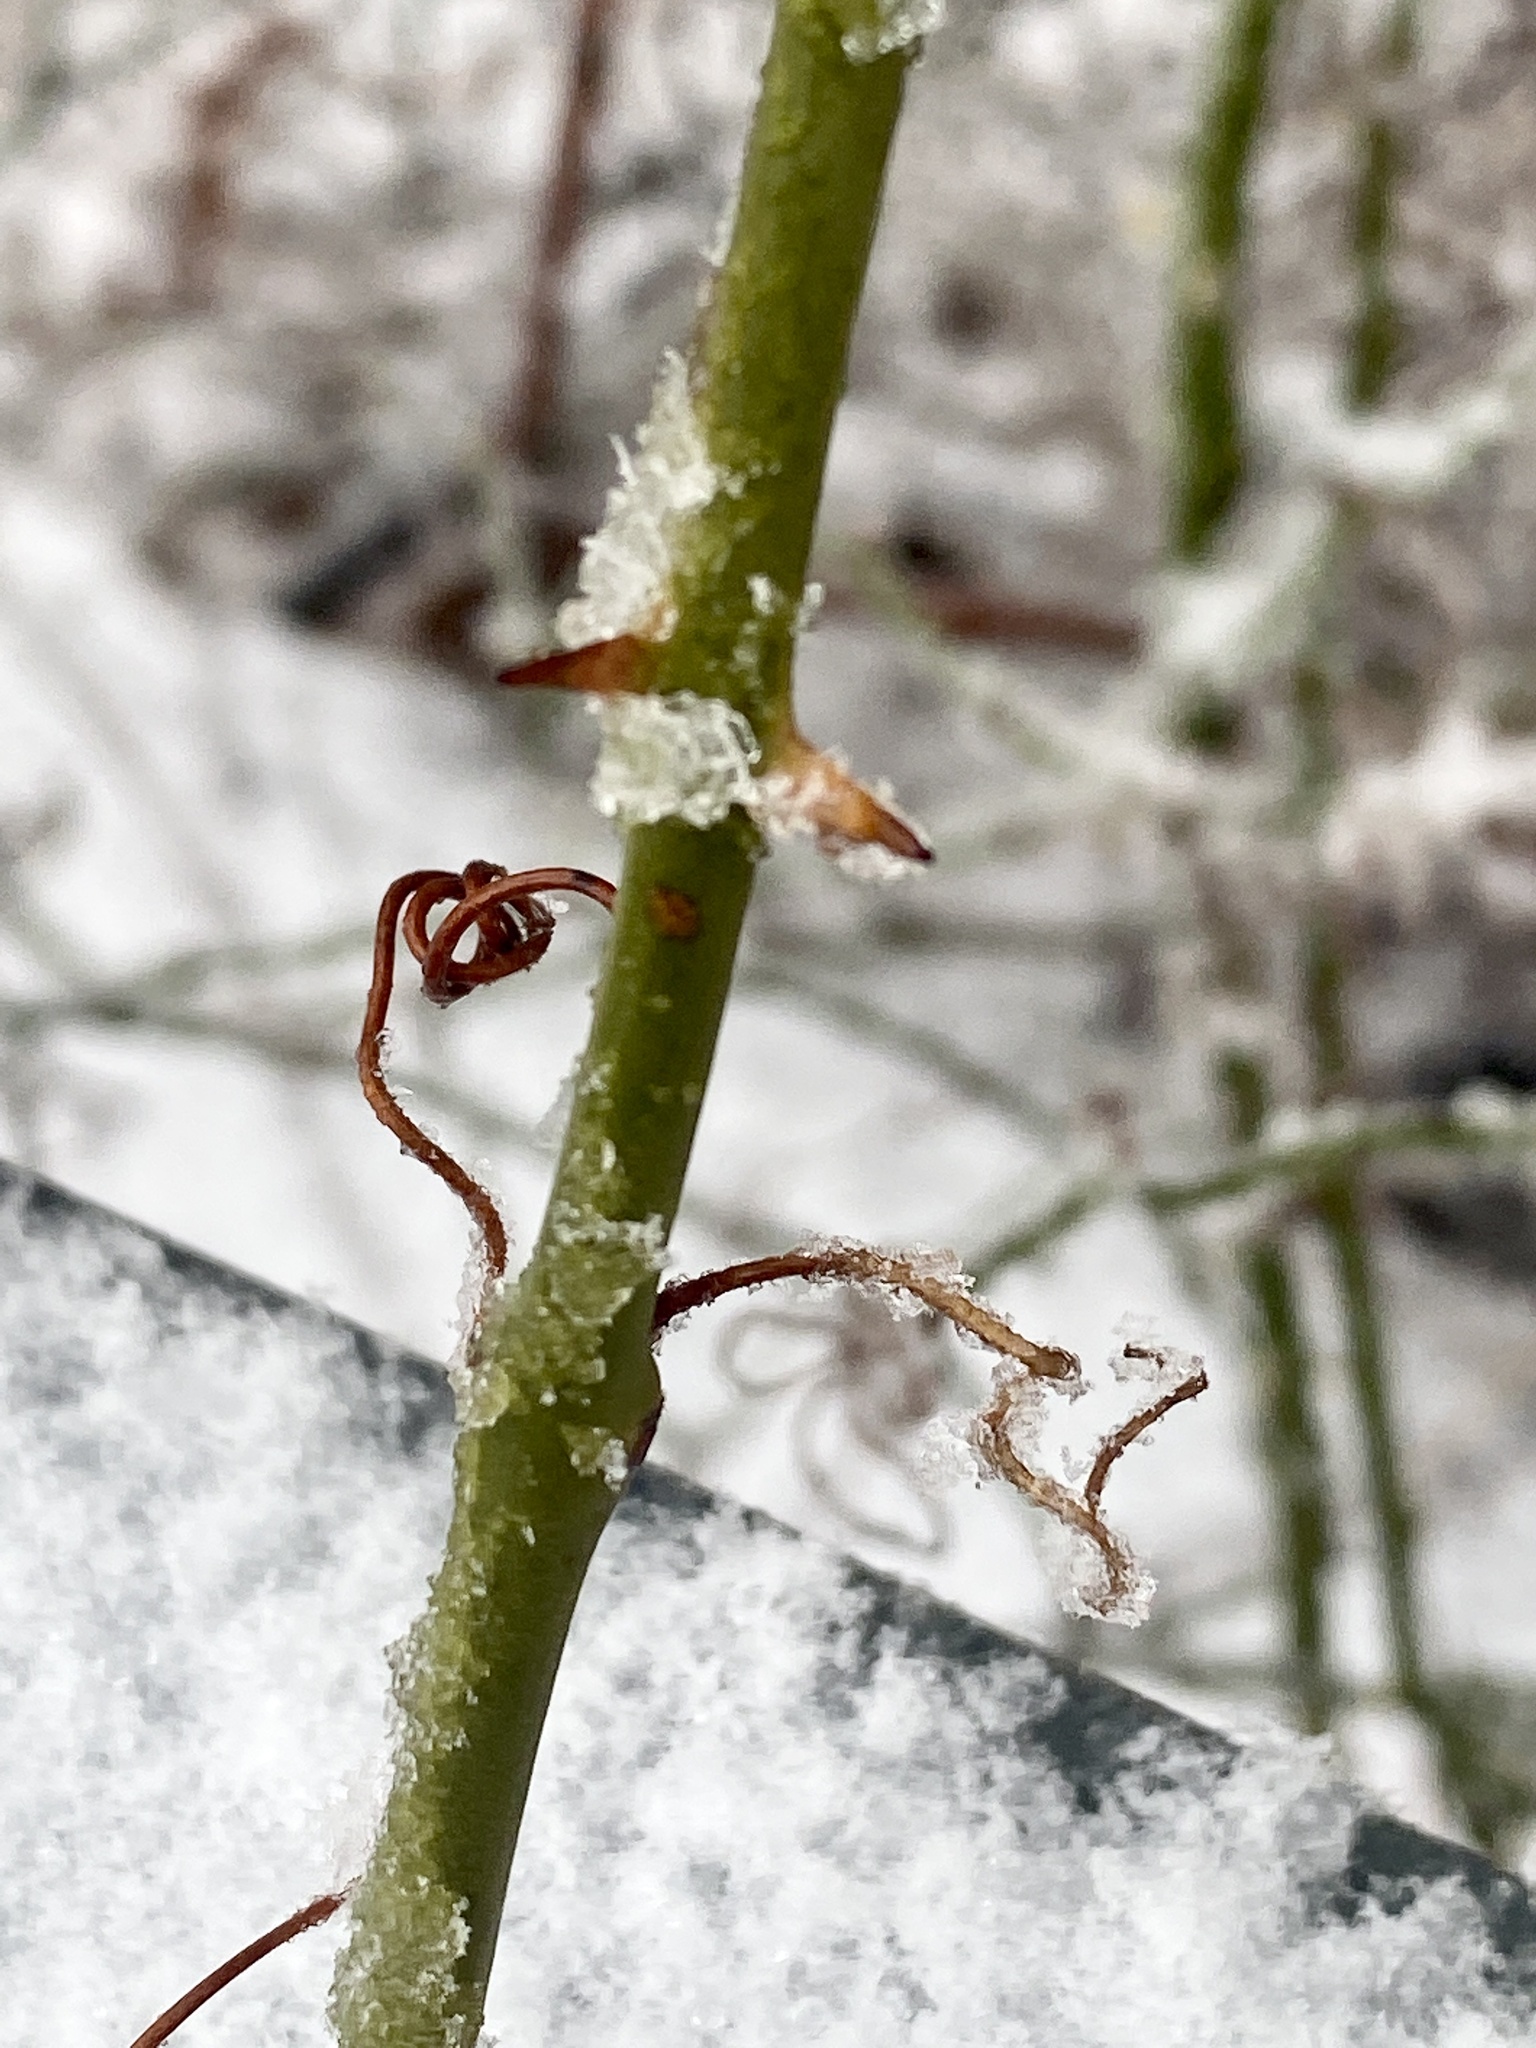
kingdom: Plantae
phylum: Tracheophyta
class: Liliopsida
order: Liliales
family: Smilacaceae
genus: Smilax
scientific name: Smilax rotundifolia
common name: Bullbriar
